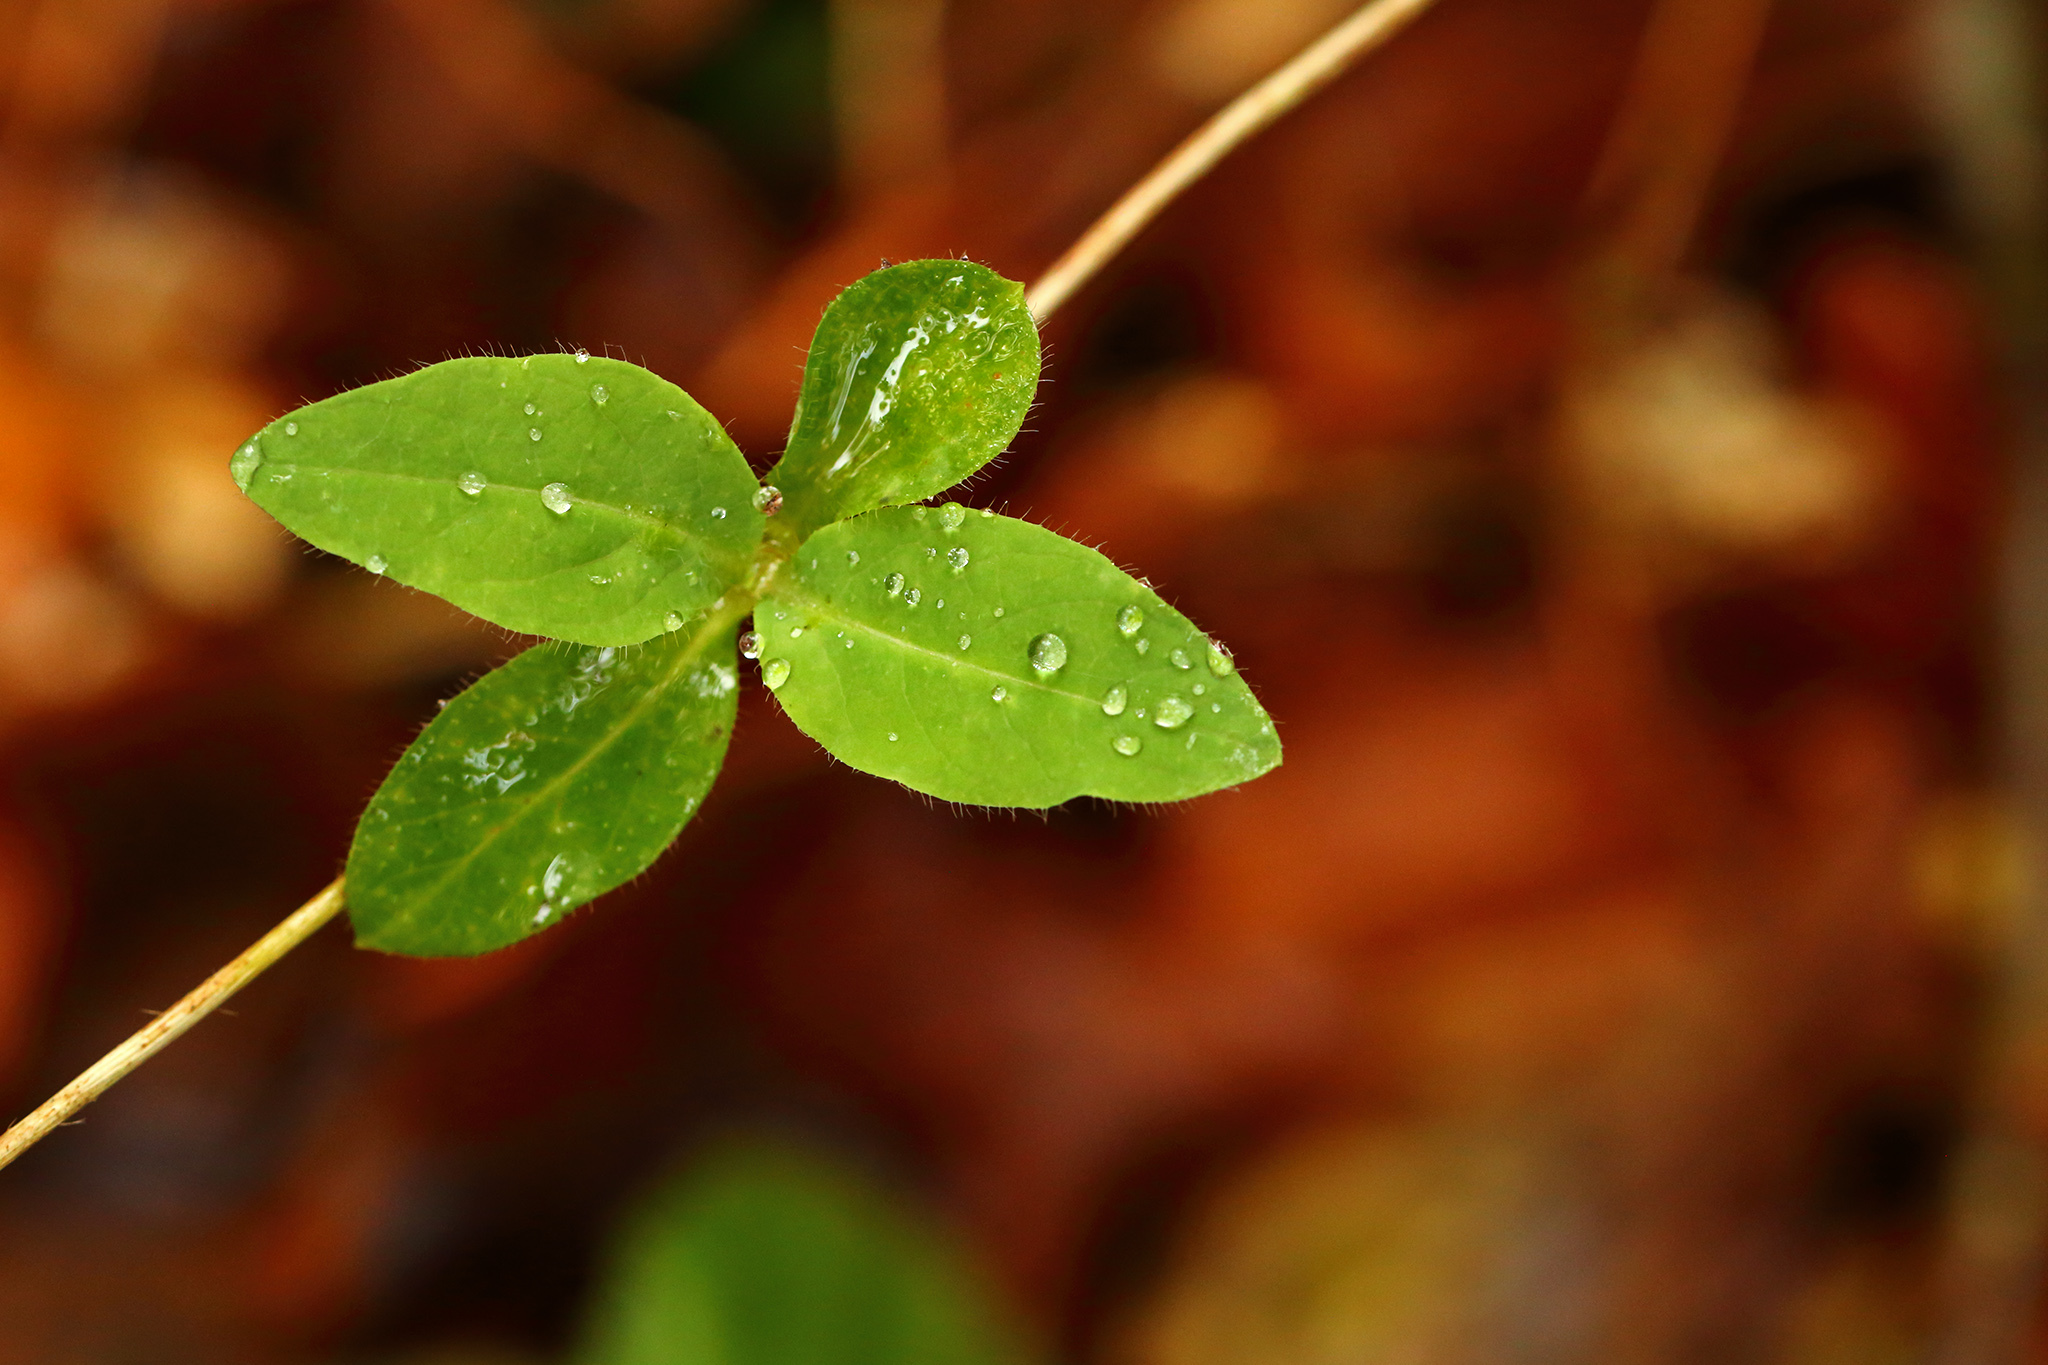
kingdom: Plantae
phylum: Tracheophyta
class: Magnoliopsida
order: Dipsacales
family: Caprifoliaceae
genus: Lonicera
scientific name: Lonicera periclymenum
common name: European honeysuckle
